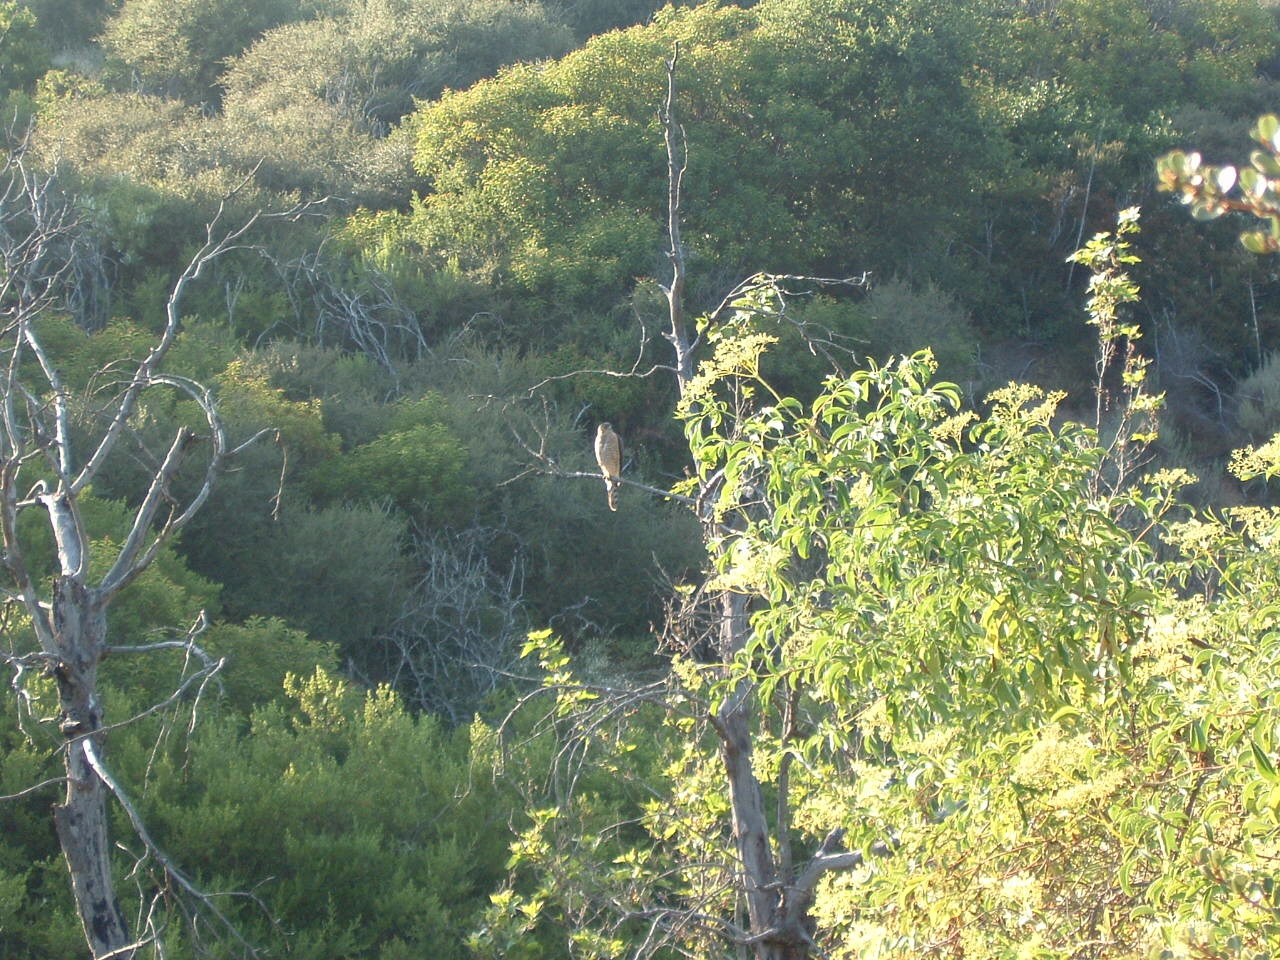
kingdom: Animalia
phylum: Chordata
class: Aves
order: Accipitriformes
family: Accipitridae
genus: Accipiter
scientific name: Accipiter cooperii
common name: Cooper's hawk
